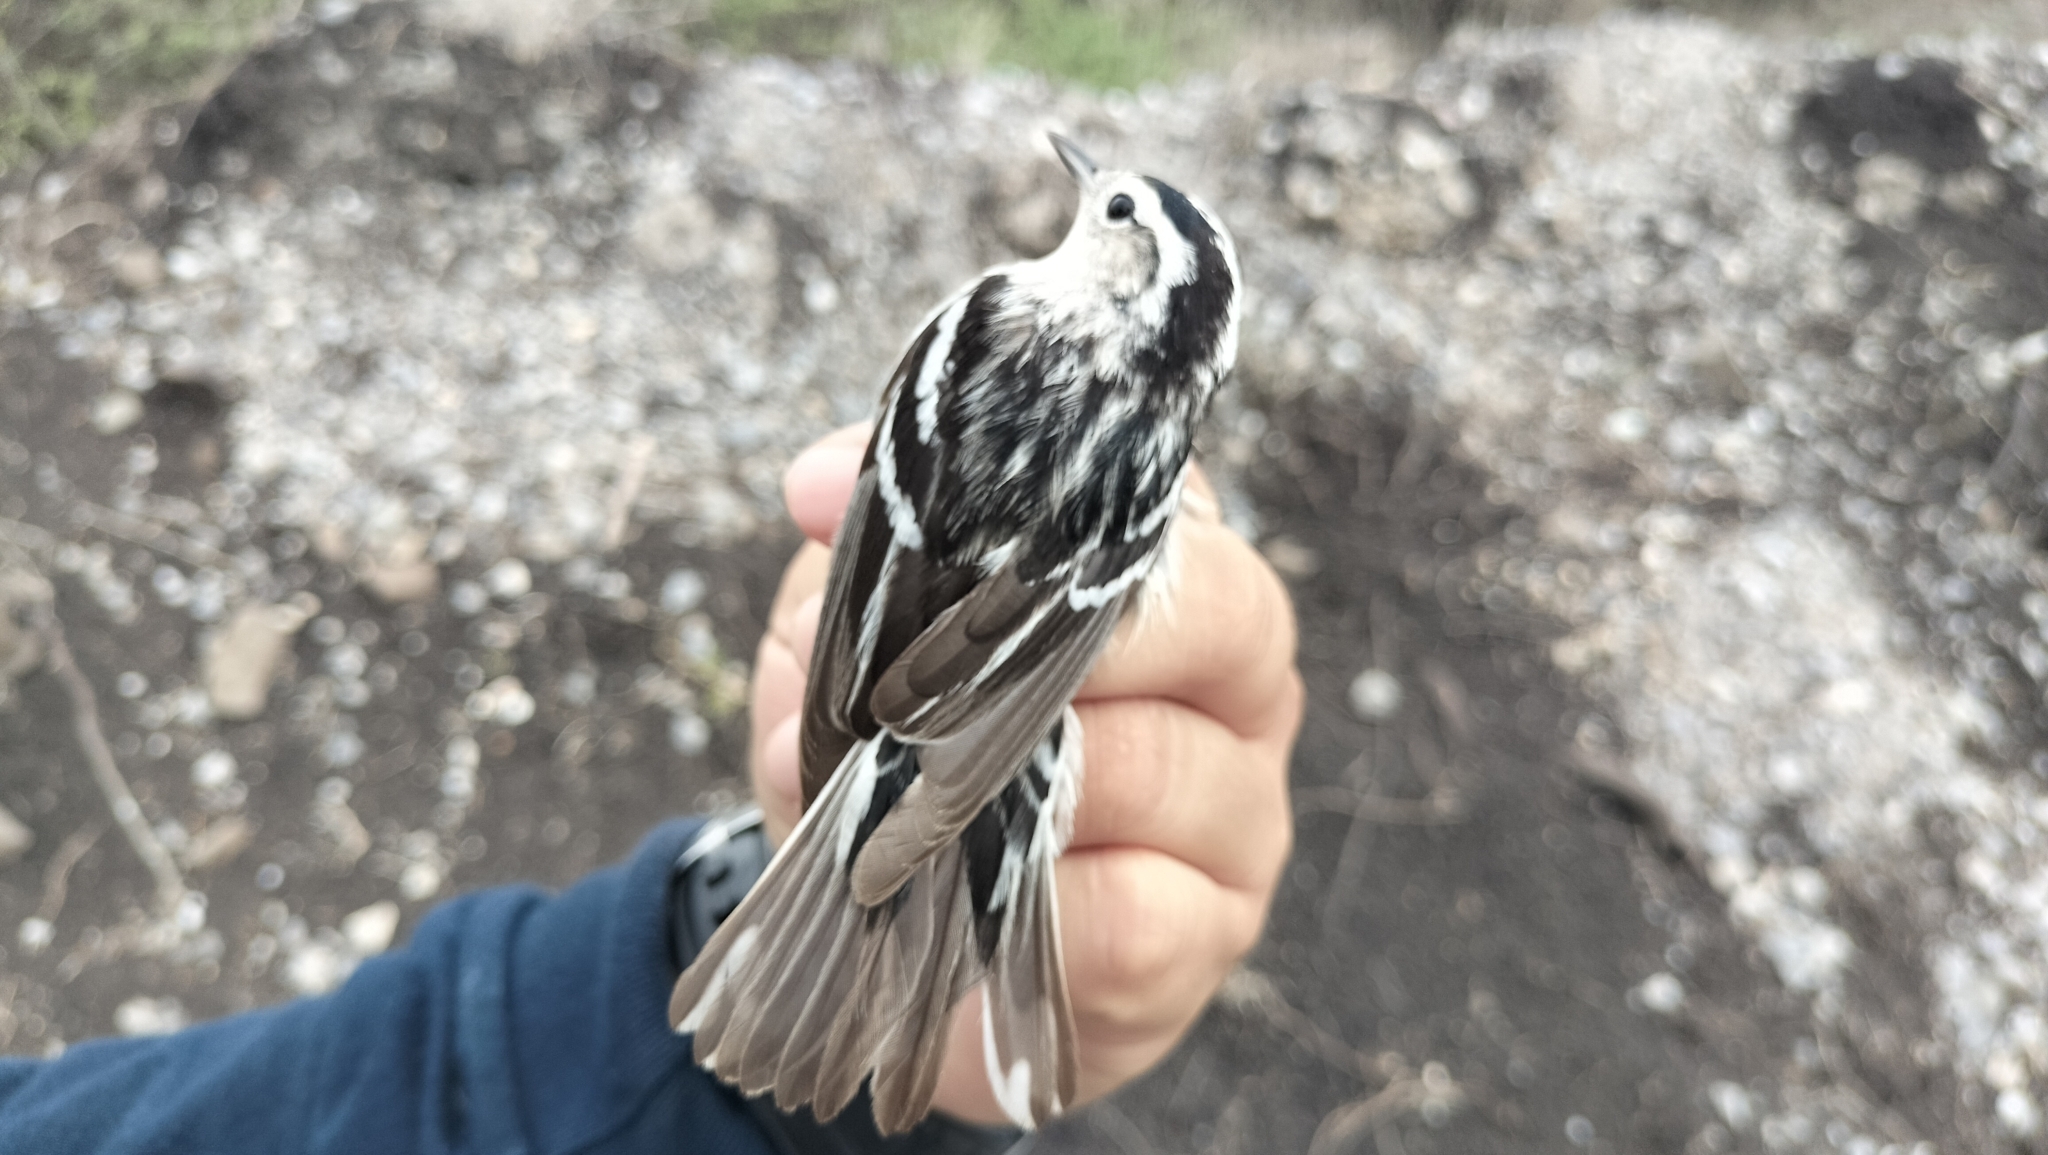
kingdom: Animalia
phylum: Chordata
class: Aves
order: Passeriformes
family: Parulidae
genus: Mniotilta
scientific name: Mniotilta varia
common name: Black-and-white warbler
